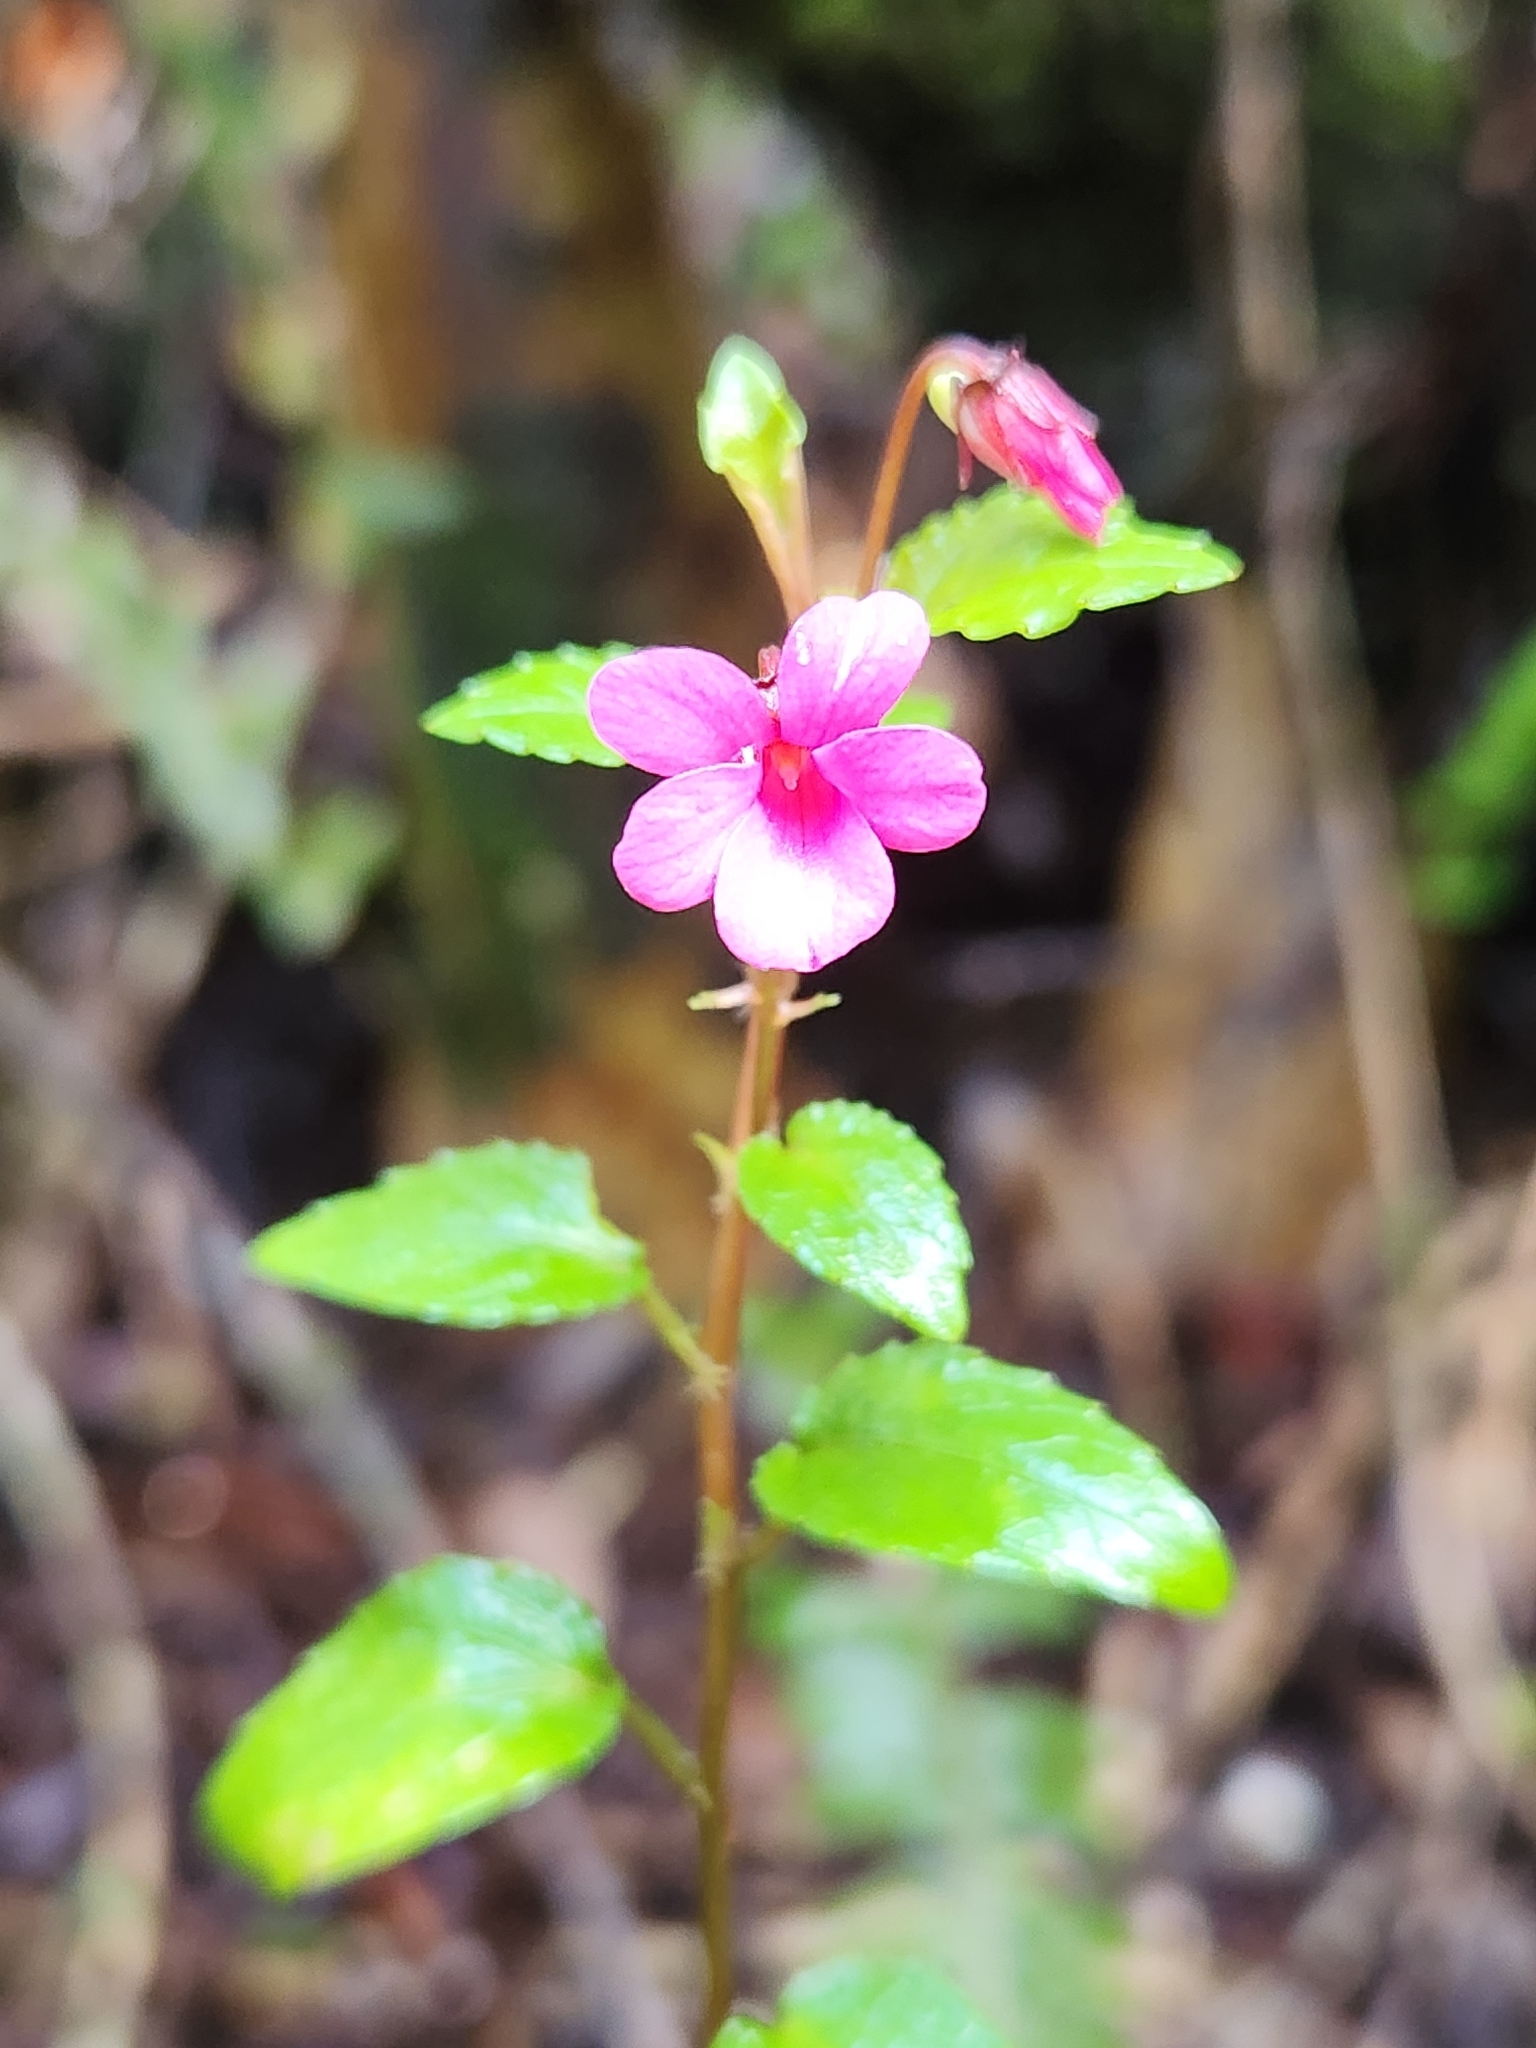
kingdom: Plantae
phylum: Tracheophyta
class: Magnoliopsida
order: Malpighiales
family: Violaceae
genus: Viola
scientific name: Viola rubella
